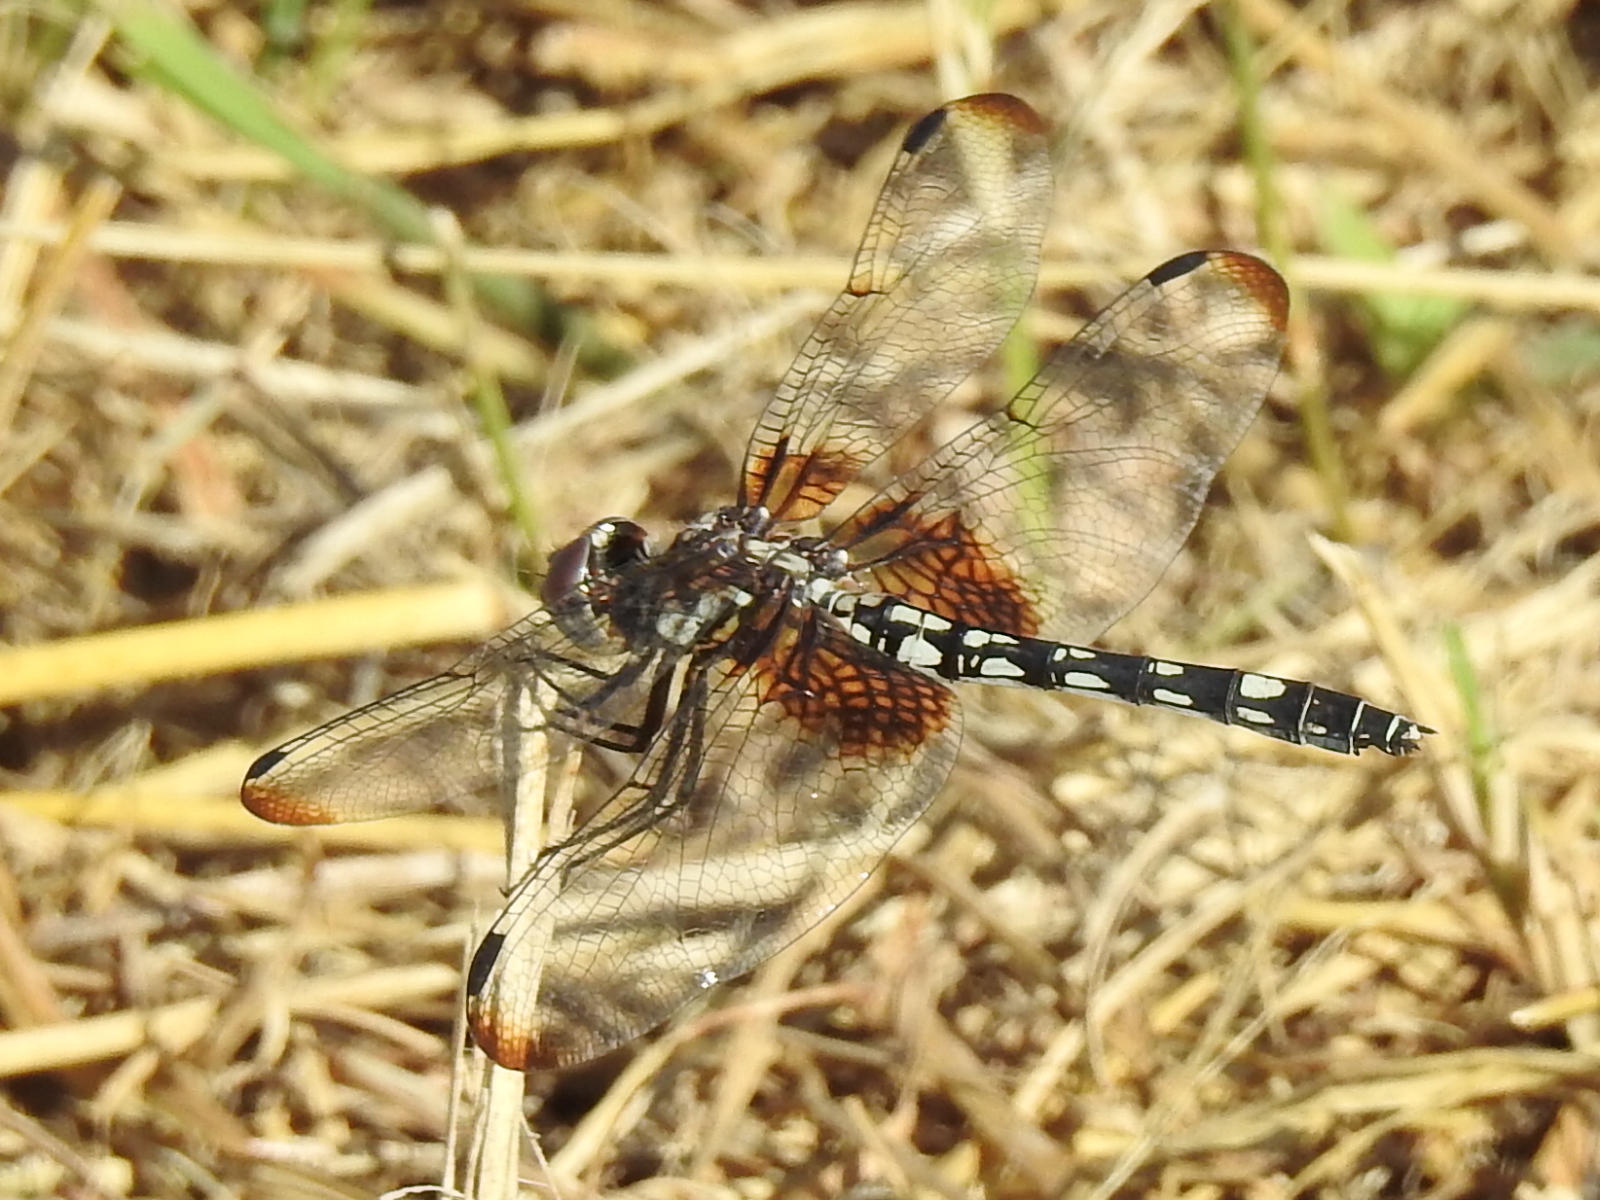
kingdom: Animalia
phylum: Arthropoda
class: Insecta
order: Odonata
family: Libellulidae
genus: Dythemis
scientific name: Dythemis fugax
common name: Checkered setwing
